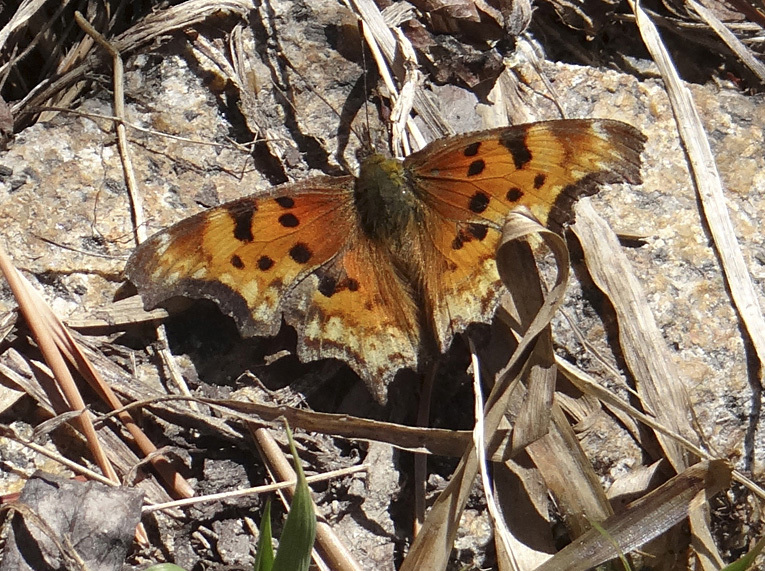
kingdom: Animalia
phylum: Arthropoda
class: Insecta
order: Lepidoptera
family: Nymphalidae
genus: Polygonia
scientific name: Polygonia gracilis
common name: Hoary comma
